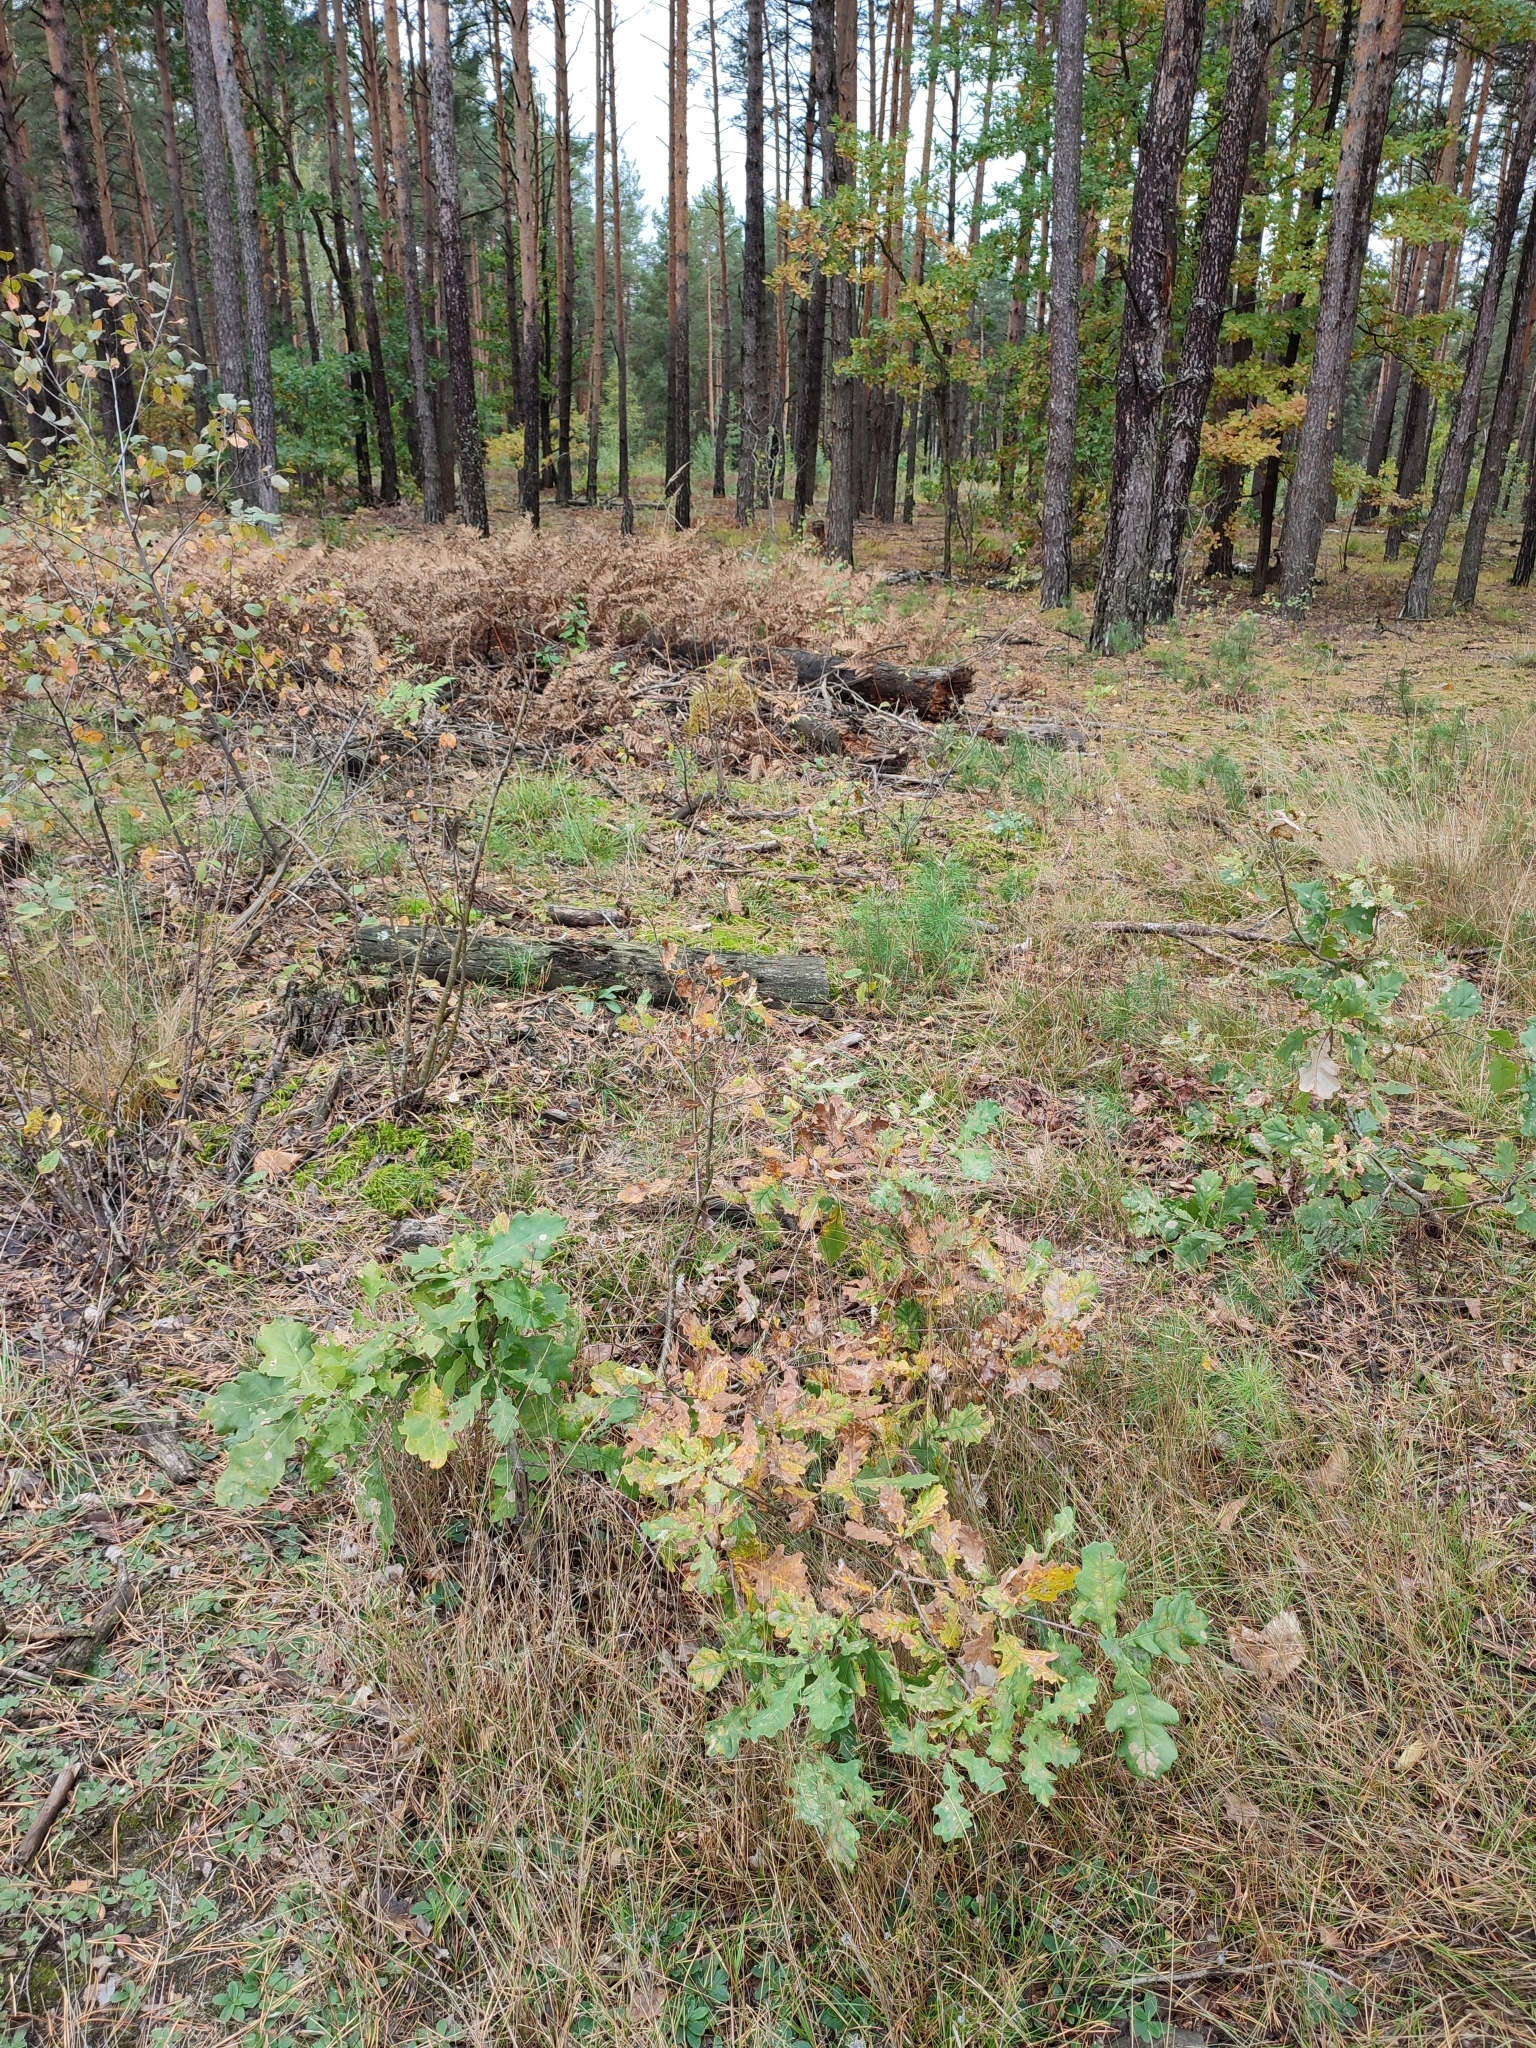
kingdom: Plantae
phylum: Tracheophyta
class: Magnoliopsida
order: Fagales
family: Fagaceae
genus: Quercus
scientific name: Quercus robur
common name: Pedunculate oak
